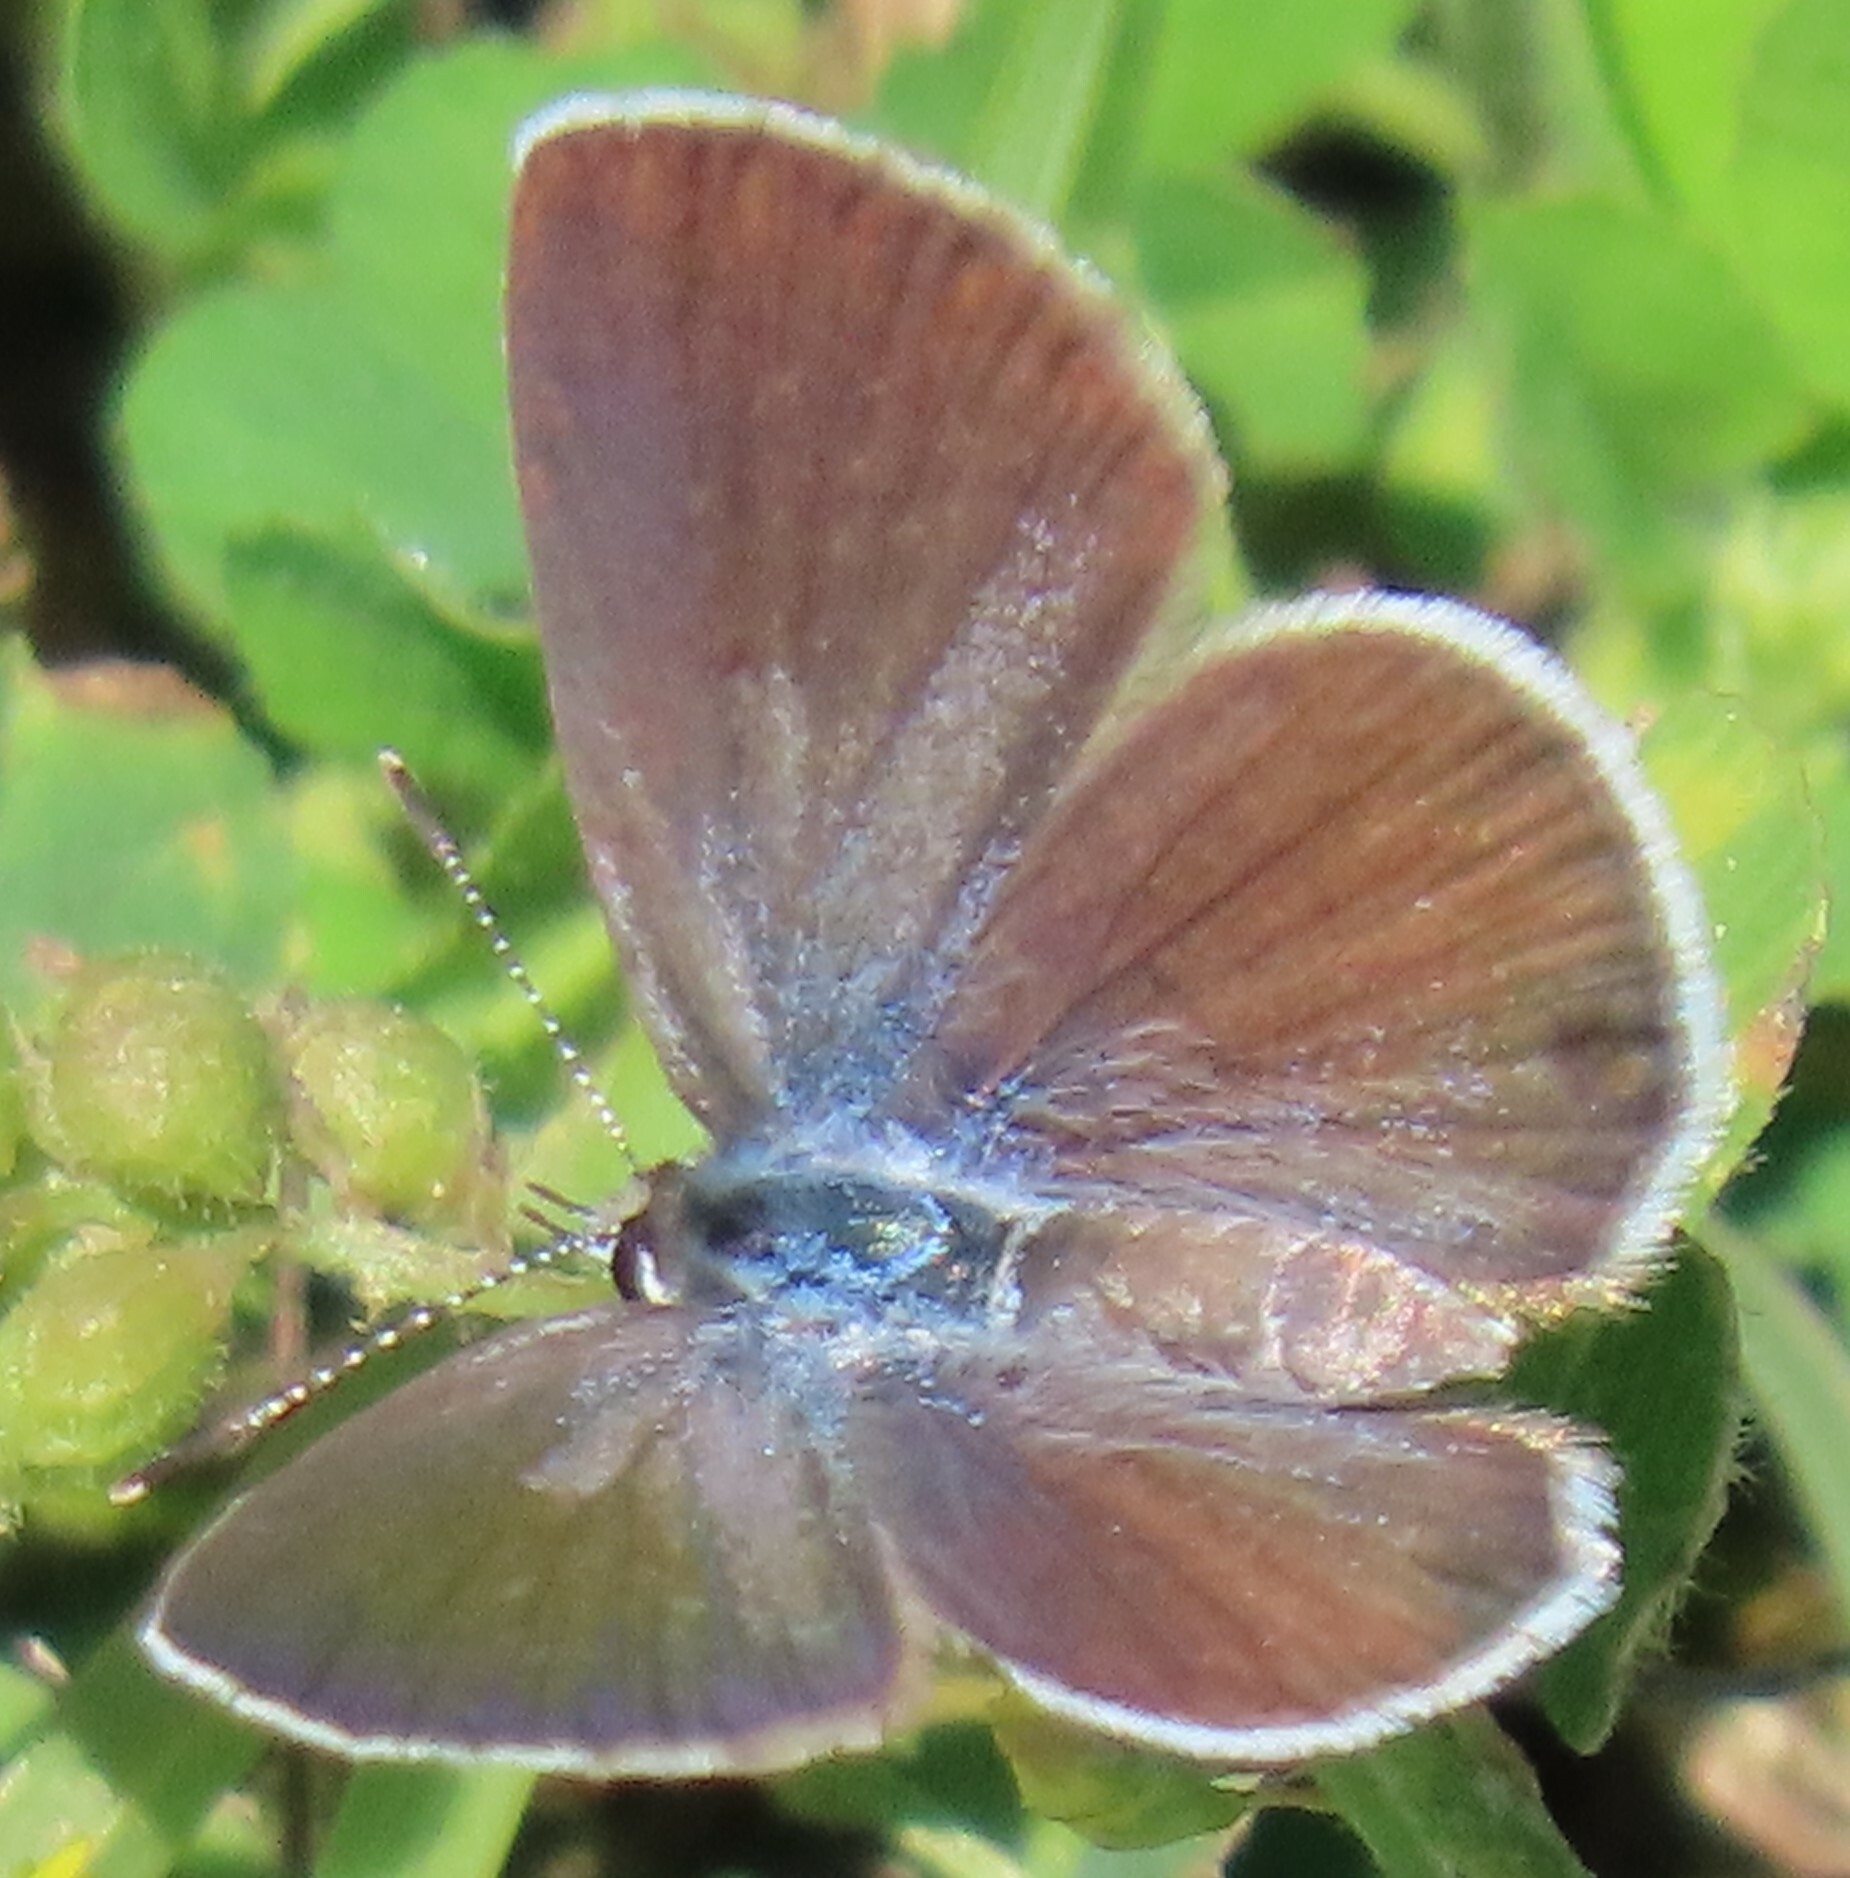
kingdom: Animalia
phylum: Arthropoda
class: Insecta
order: Lepidoptera
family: Lycaenidae
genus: Hemiargus
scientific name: Hemiargus ceraunus
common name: Ceraunus blue
